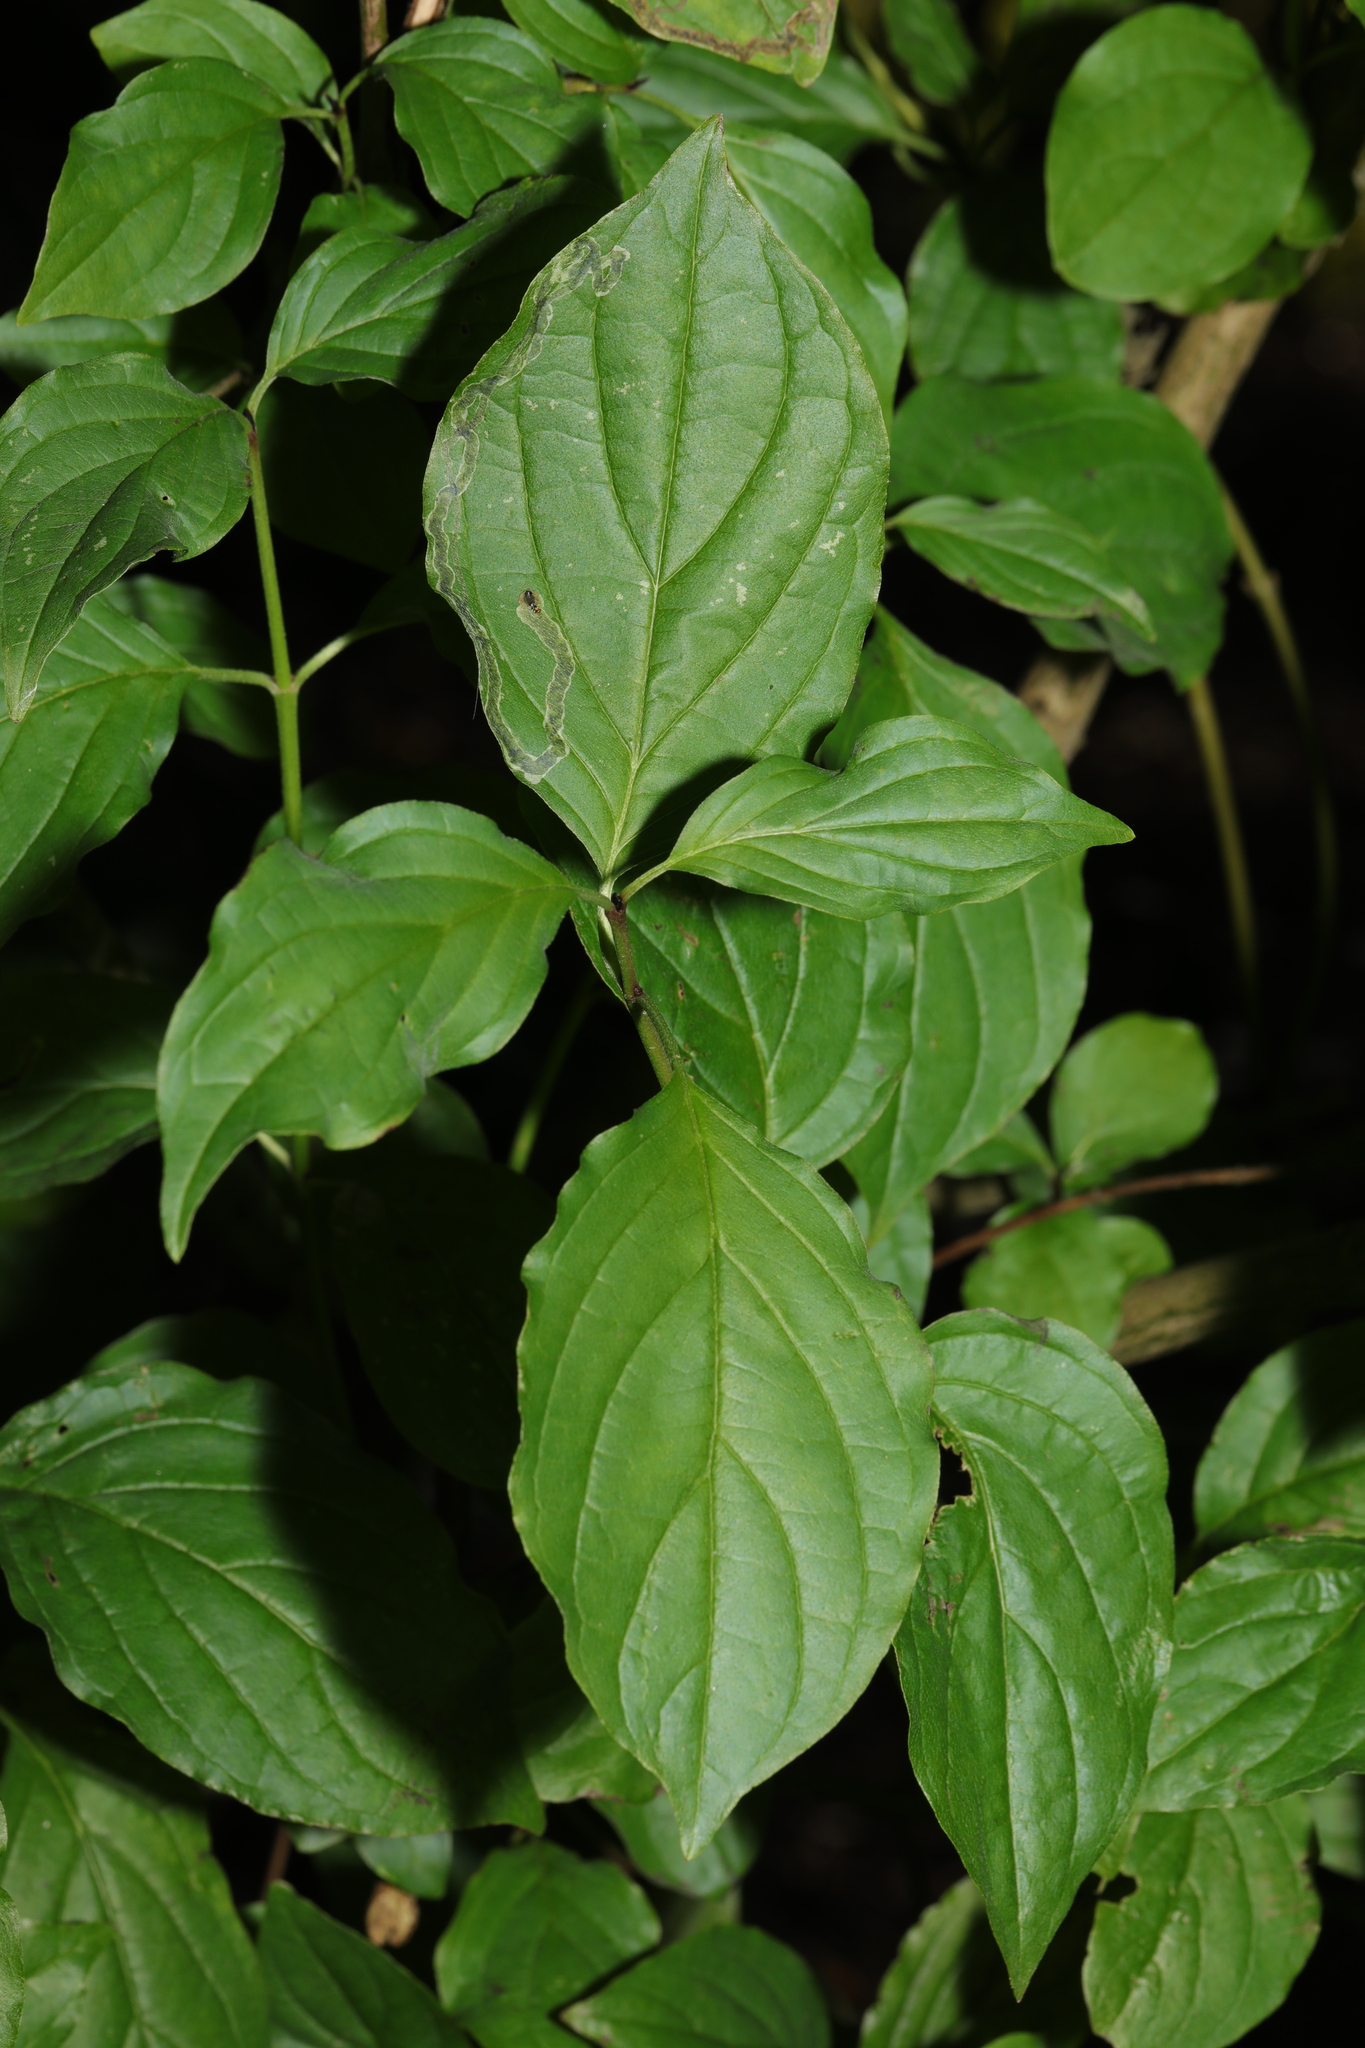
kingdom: Plantae
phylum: Tracheophyta
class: Magnoliopsida
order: Cornales
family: Cornaceae
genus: Cornus
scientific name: Cornus sanguinea
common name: Dogwood
